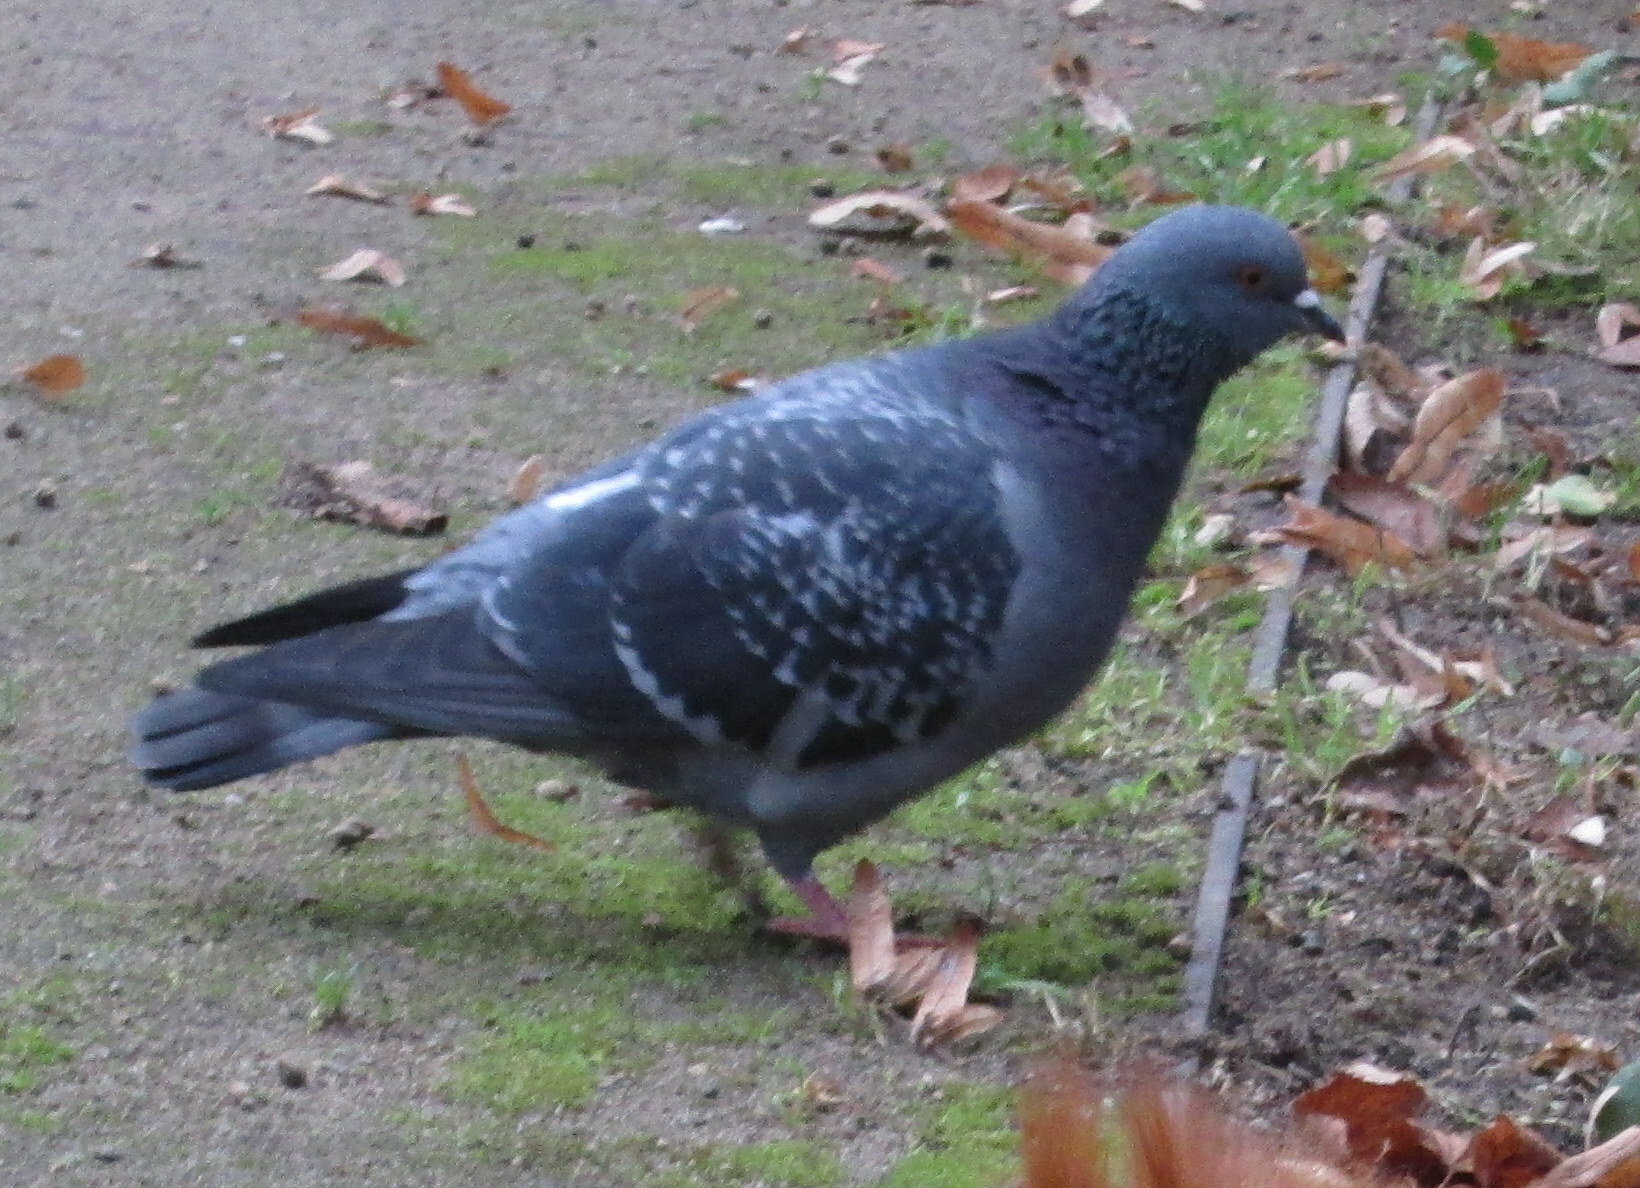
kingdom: Animalia
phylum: Chordata
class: Aves
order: Columbiformes
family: Columbidae
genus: Columba
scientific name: Columba livia
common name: Rock pigeon
